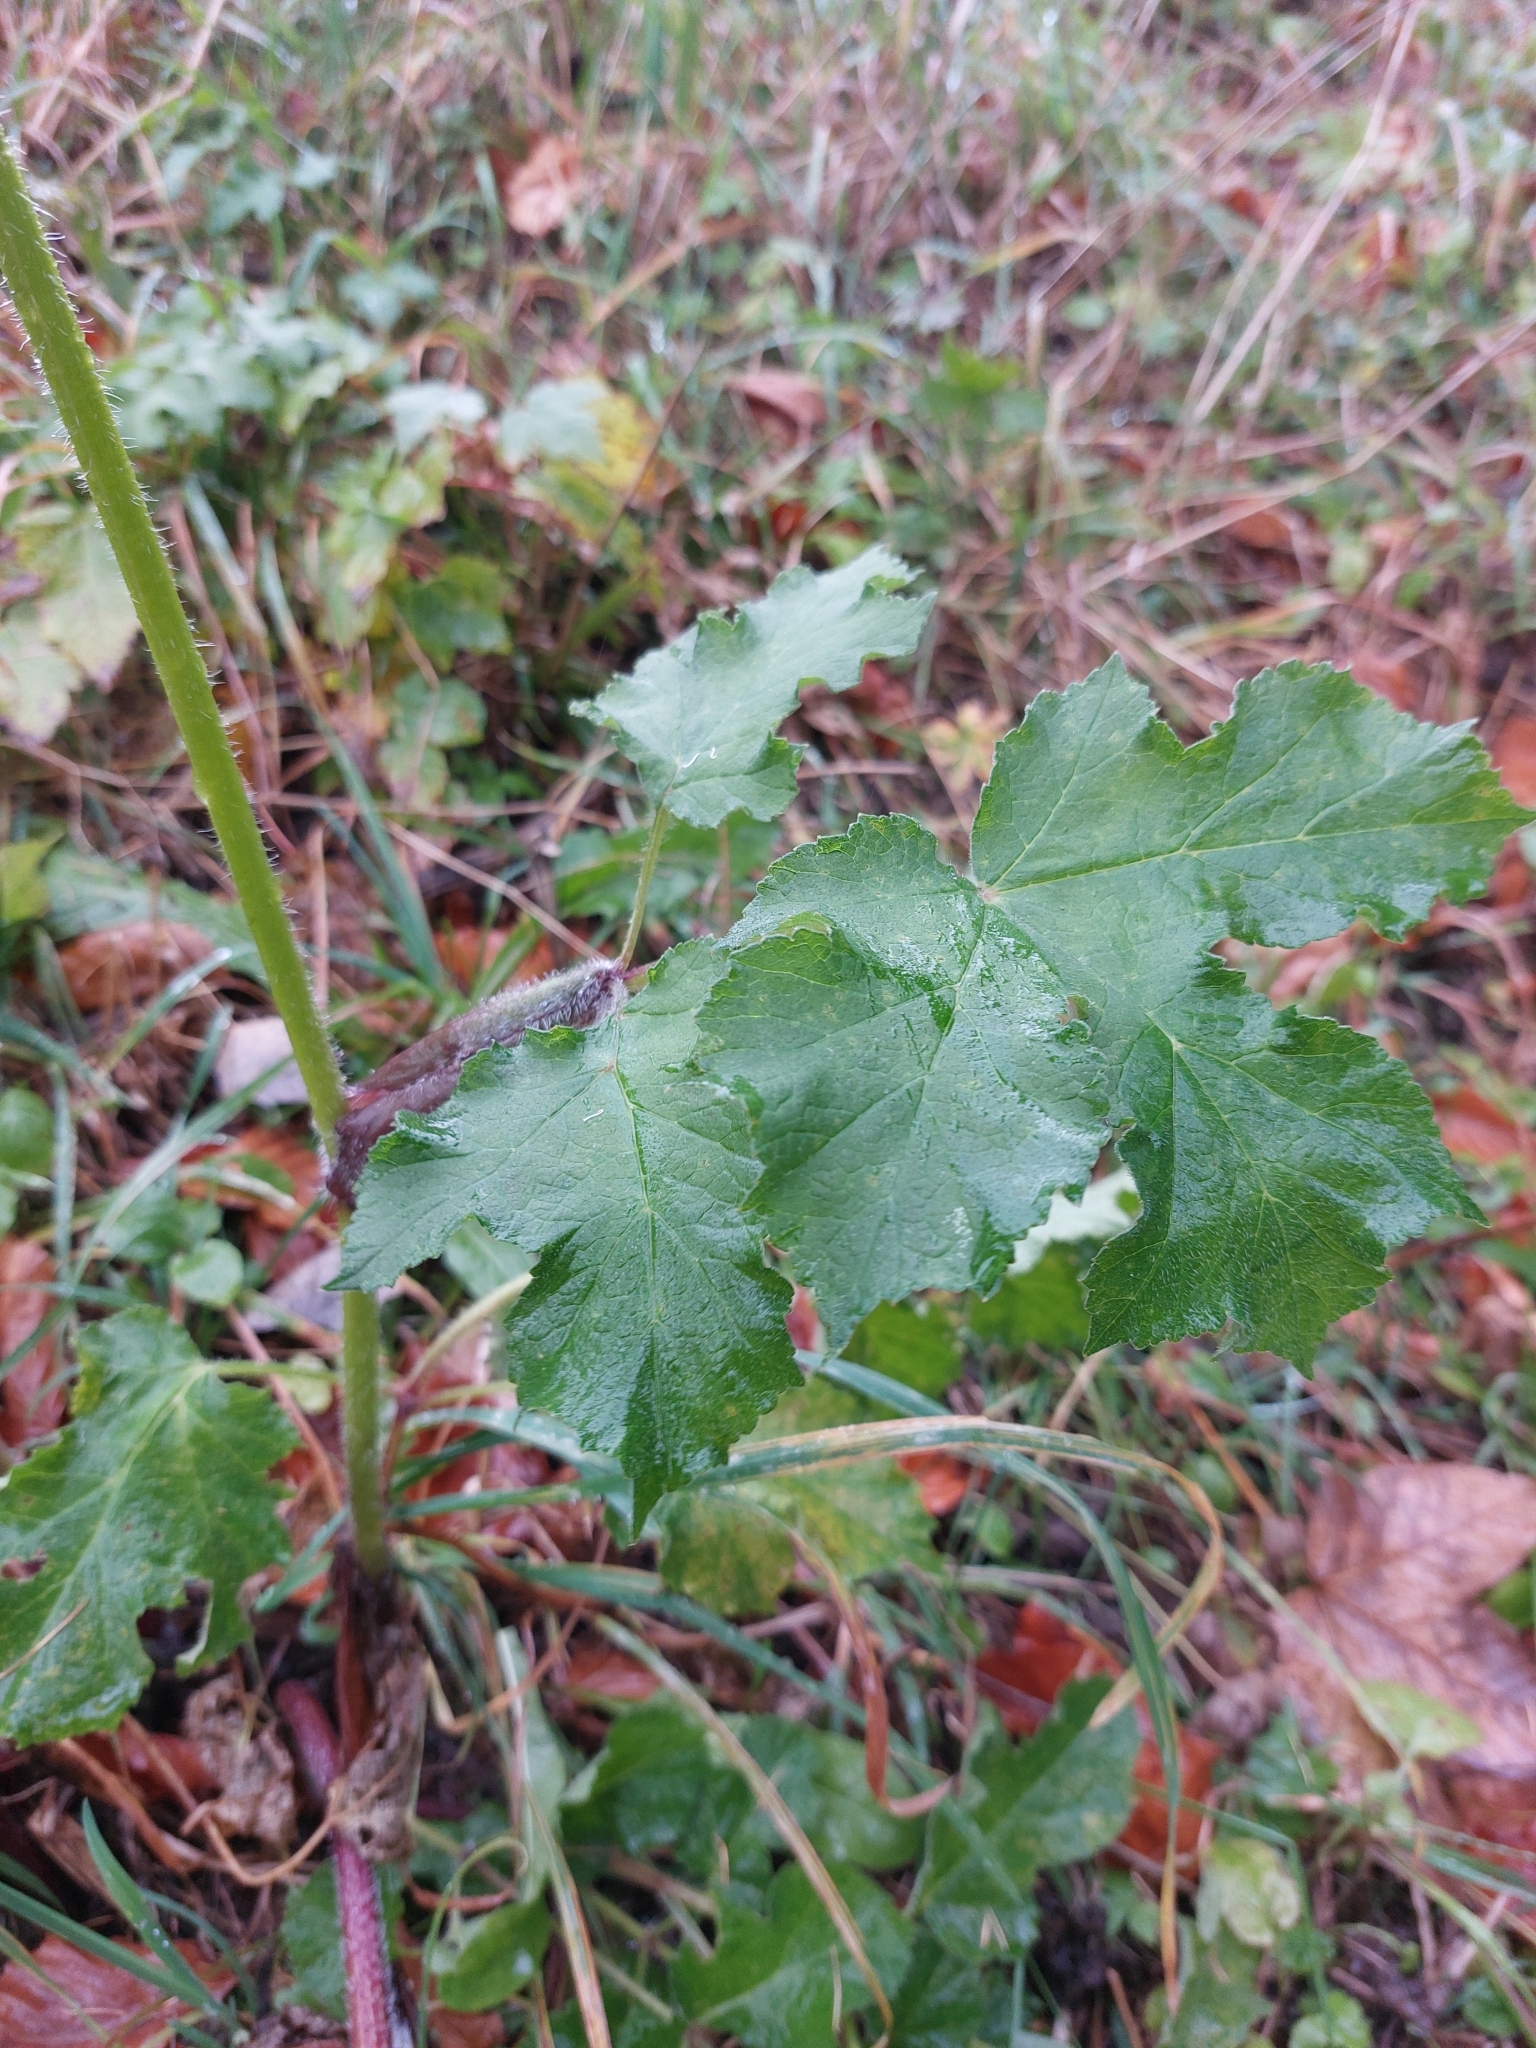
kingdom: Plantae
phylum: Tracheophyta
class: Magnoliopsida
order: Apiales
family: Apiaceae
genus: Heracleum
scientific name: Heracleum sphondylium
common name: Hogweed
